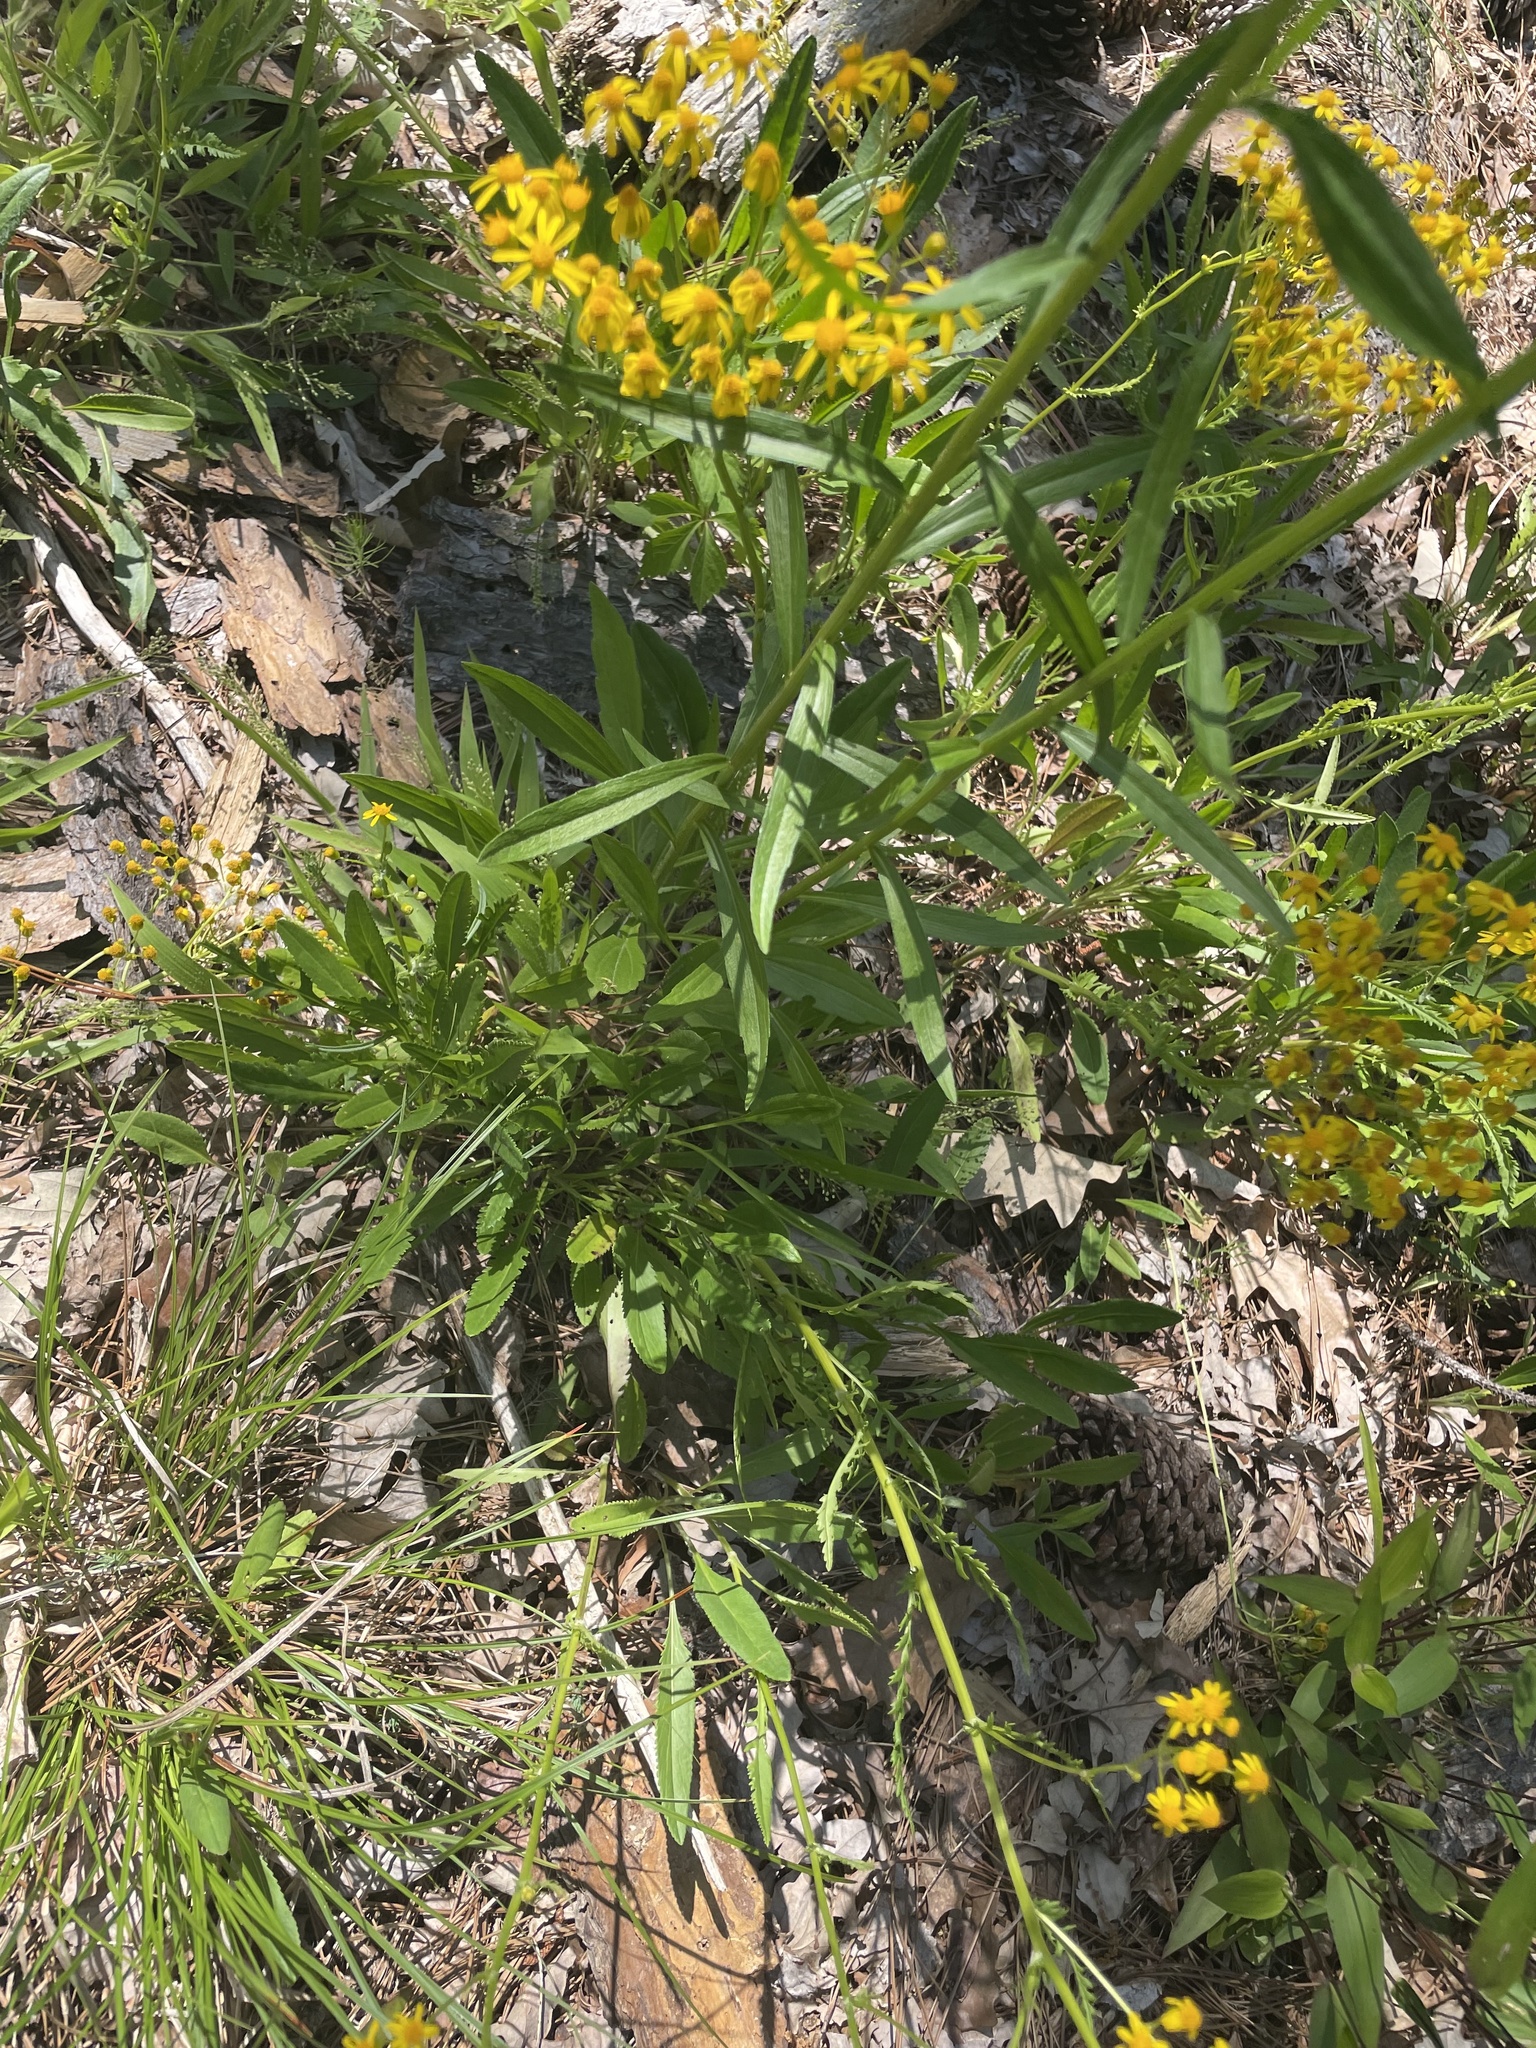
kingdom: Plantae
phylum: Tracheophyta
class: Magnoliopsida
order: Asterales
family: Asteraceae
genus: Packera
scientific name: Packera anonyma
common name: Small ragwort
